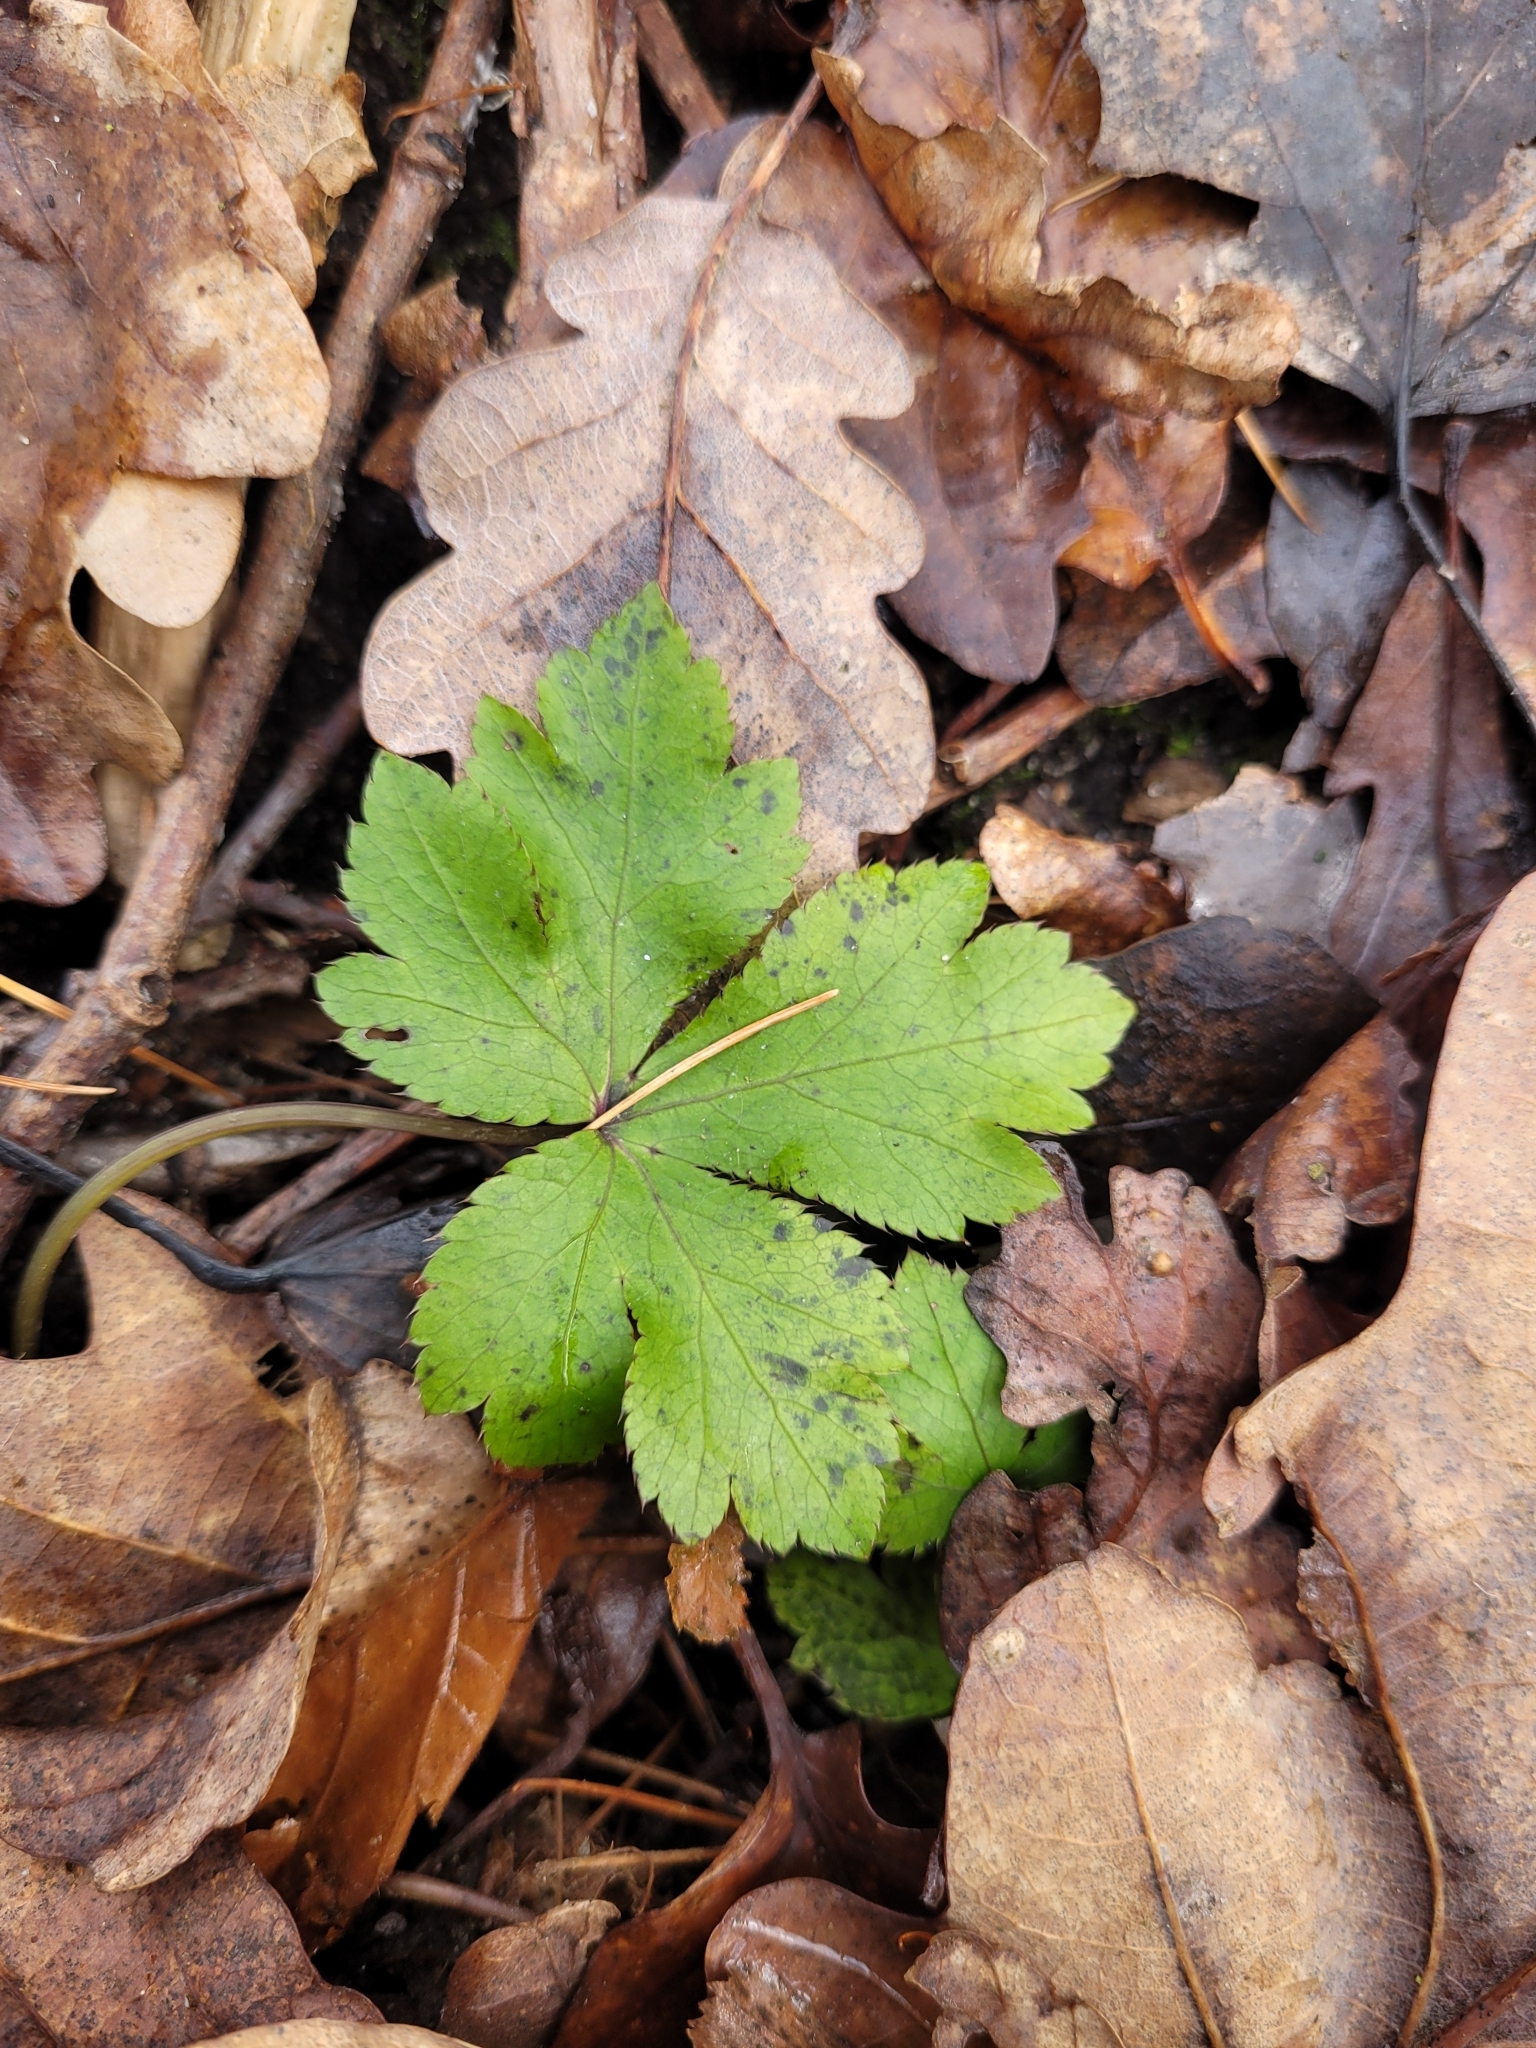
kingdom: Plantae
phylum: Tracheophyta
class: Magnoliopsida
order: Apiales
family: Apiaceae
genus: Sanicula
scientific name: Sanicula europaea
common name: Sanicle
